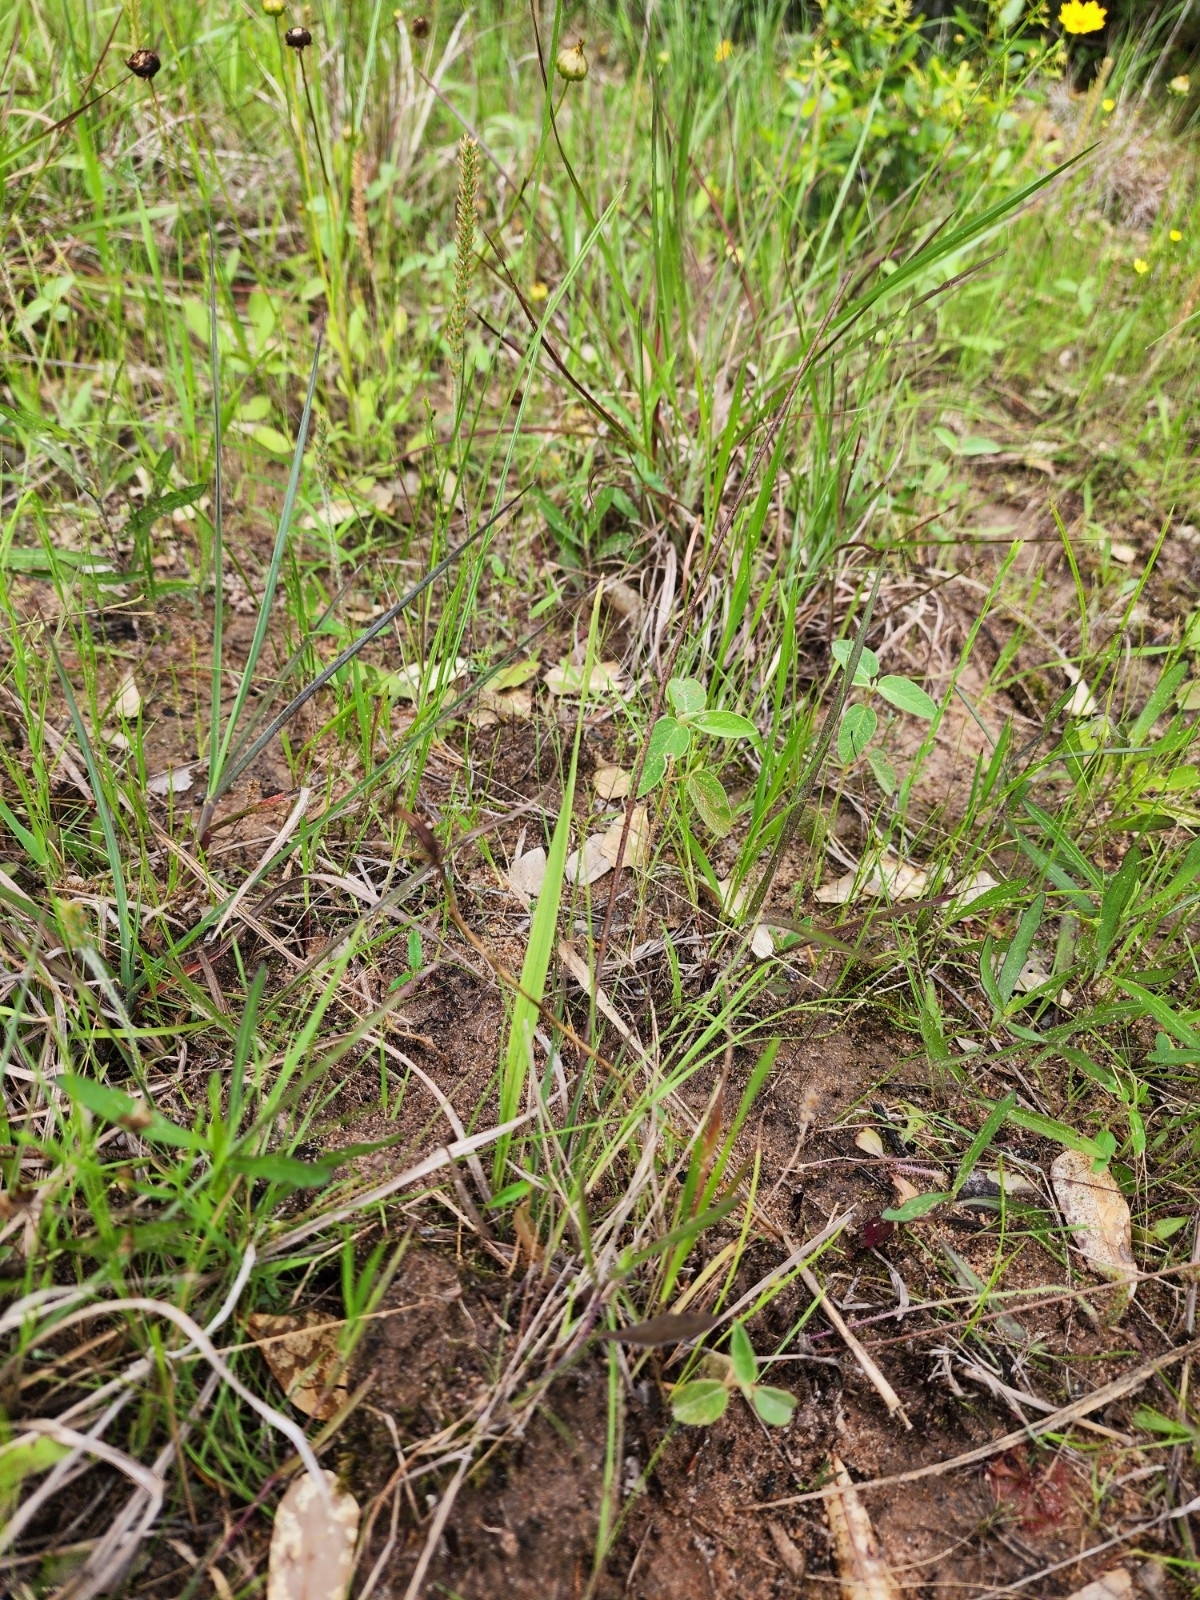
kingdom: Plantae
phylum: Tracheophyta
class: Liliopsida
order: Asparagales
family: Orchidaceae
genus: Calopogon
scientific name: Calopogon oklahomensis
